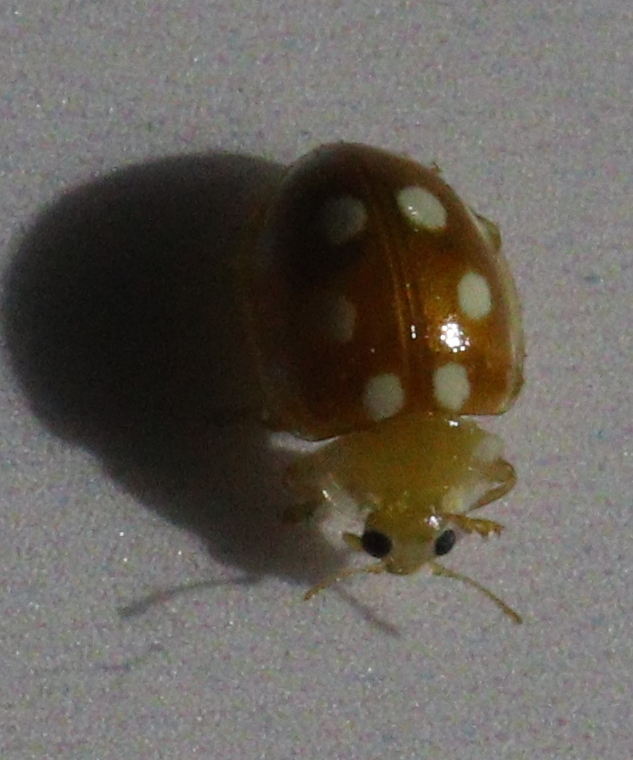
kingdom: Animalia
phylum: Arthropoda
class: Insecta
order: Coleoptera
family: Coccinellidae
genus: Vibidia
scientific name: Vibidia duodecimguttata
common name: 12-spot ladybird
